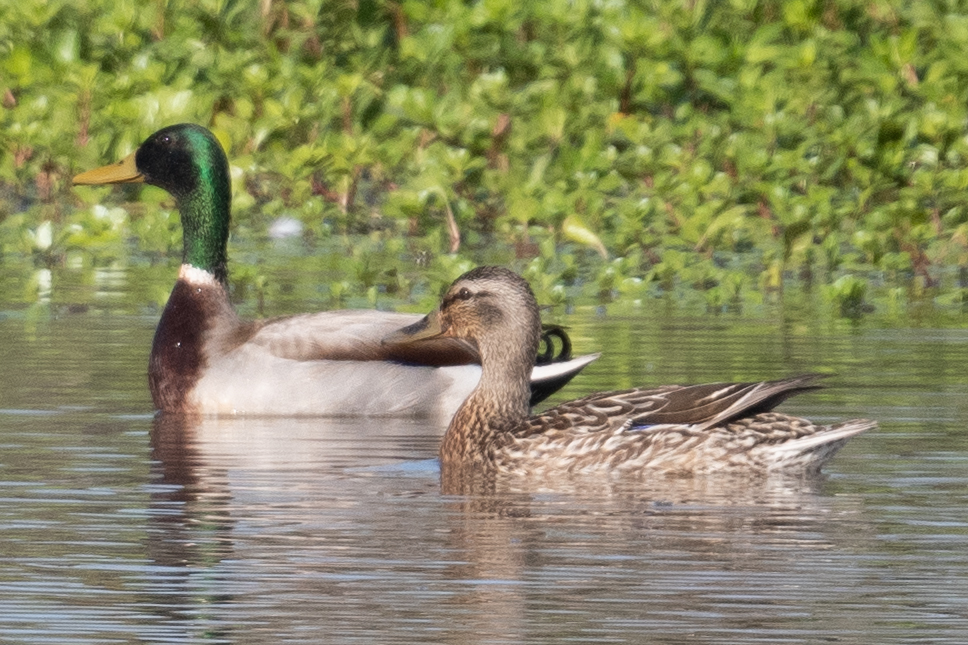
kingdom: Animalia
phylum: Chordata
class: Aves
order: Anseriformes
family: Anatidae
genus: Anas
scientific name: Anas platyrhynchos
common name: Mallard
